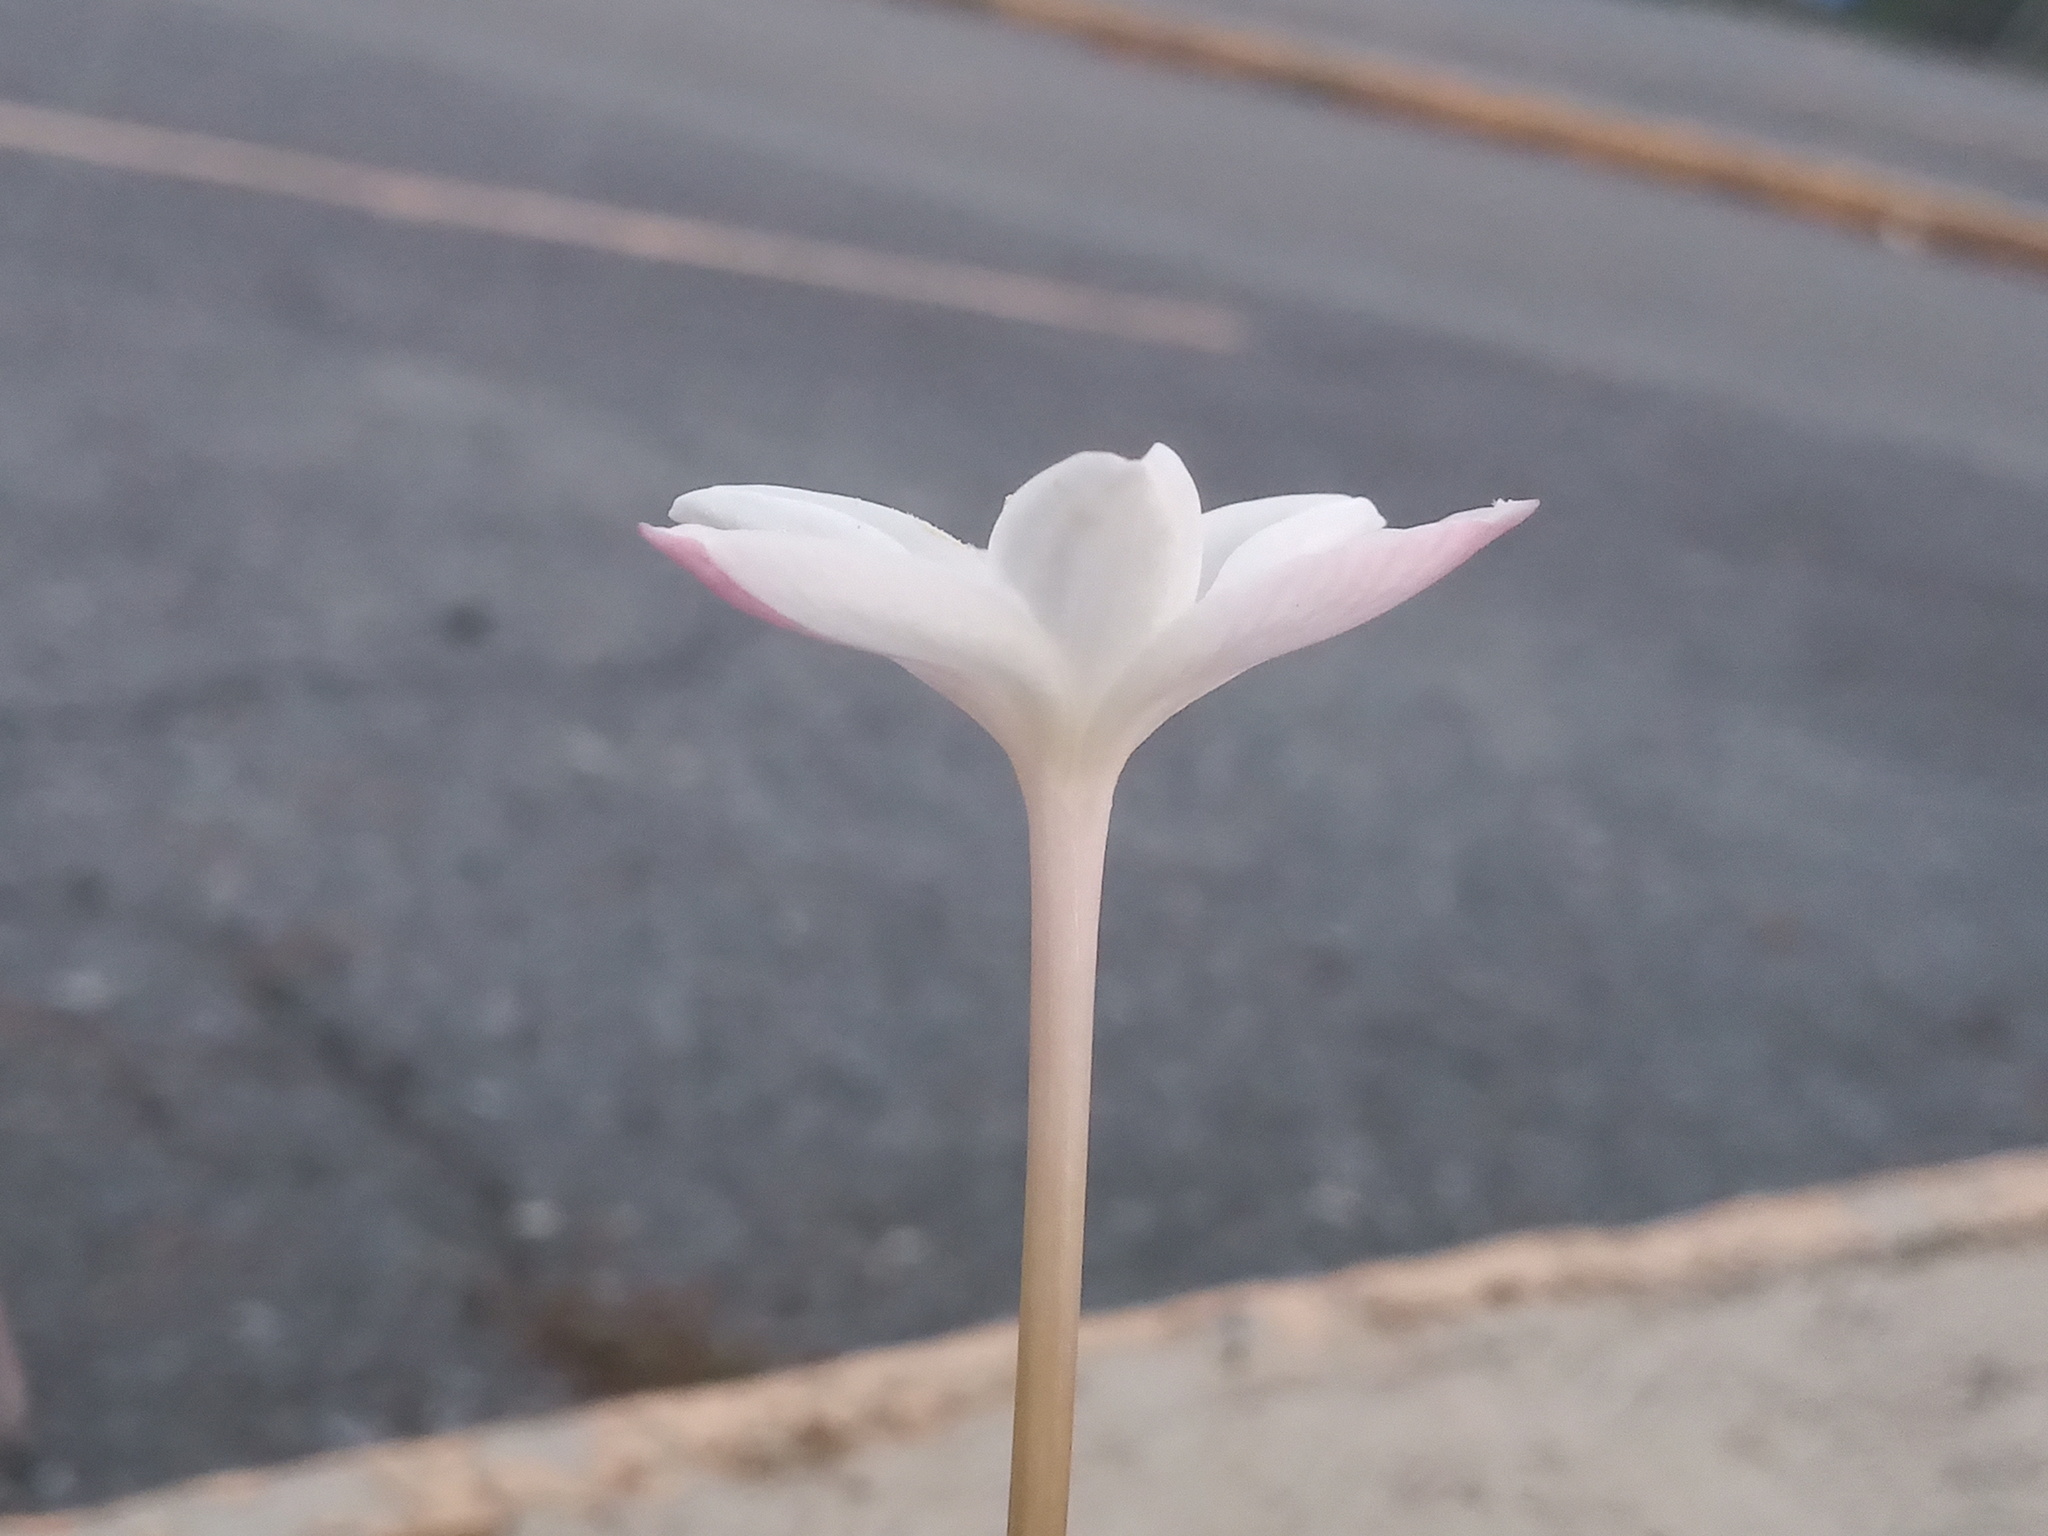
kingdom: Plantae
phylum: Tracheophyta
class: Liliopsida
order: Asparagales
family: Amaryllidaceae
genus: Zephyranthes
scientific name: Zephyranthes chlorosolen
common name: Evening rain-lily
